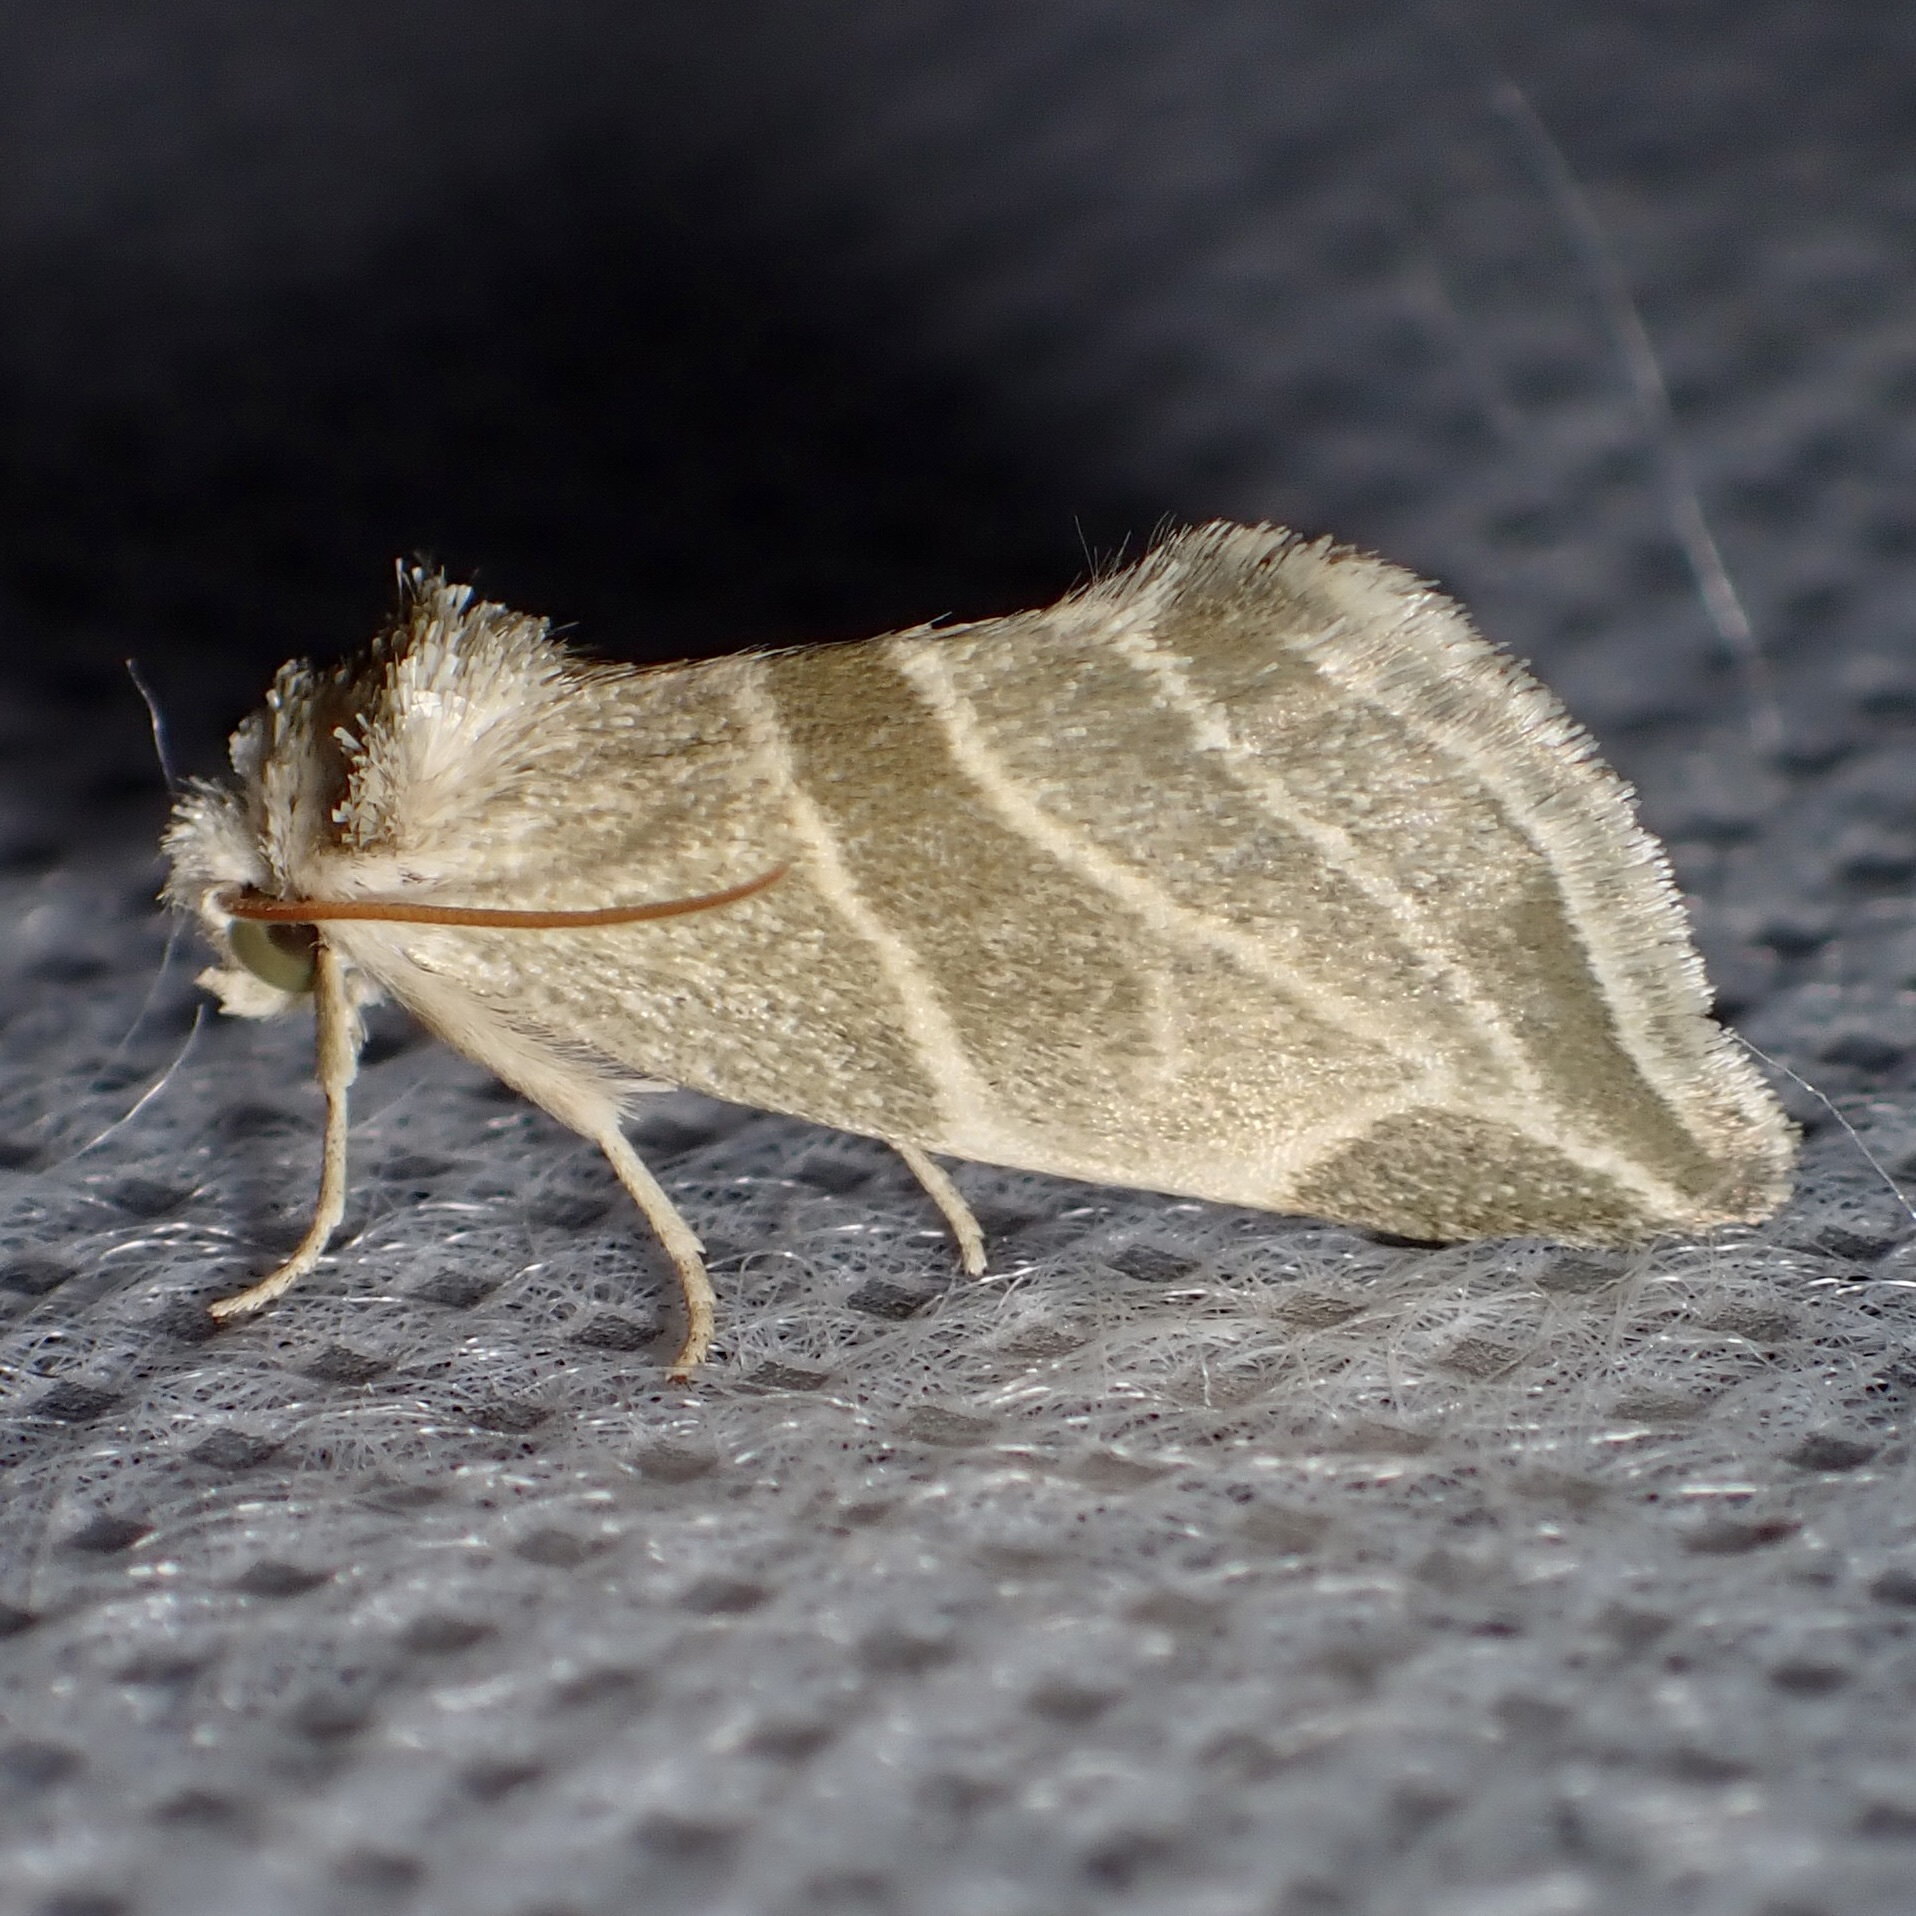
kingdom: Animalia
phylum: Arthropoda
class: Insecta
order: Lepidoptera
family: Noctuidae
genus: Plagiomimicus
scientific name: Plagiomimicus mimica
